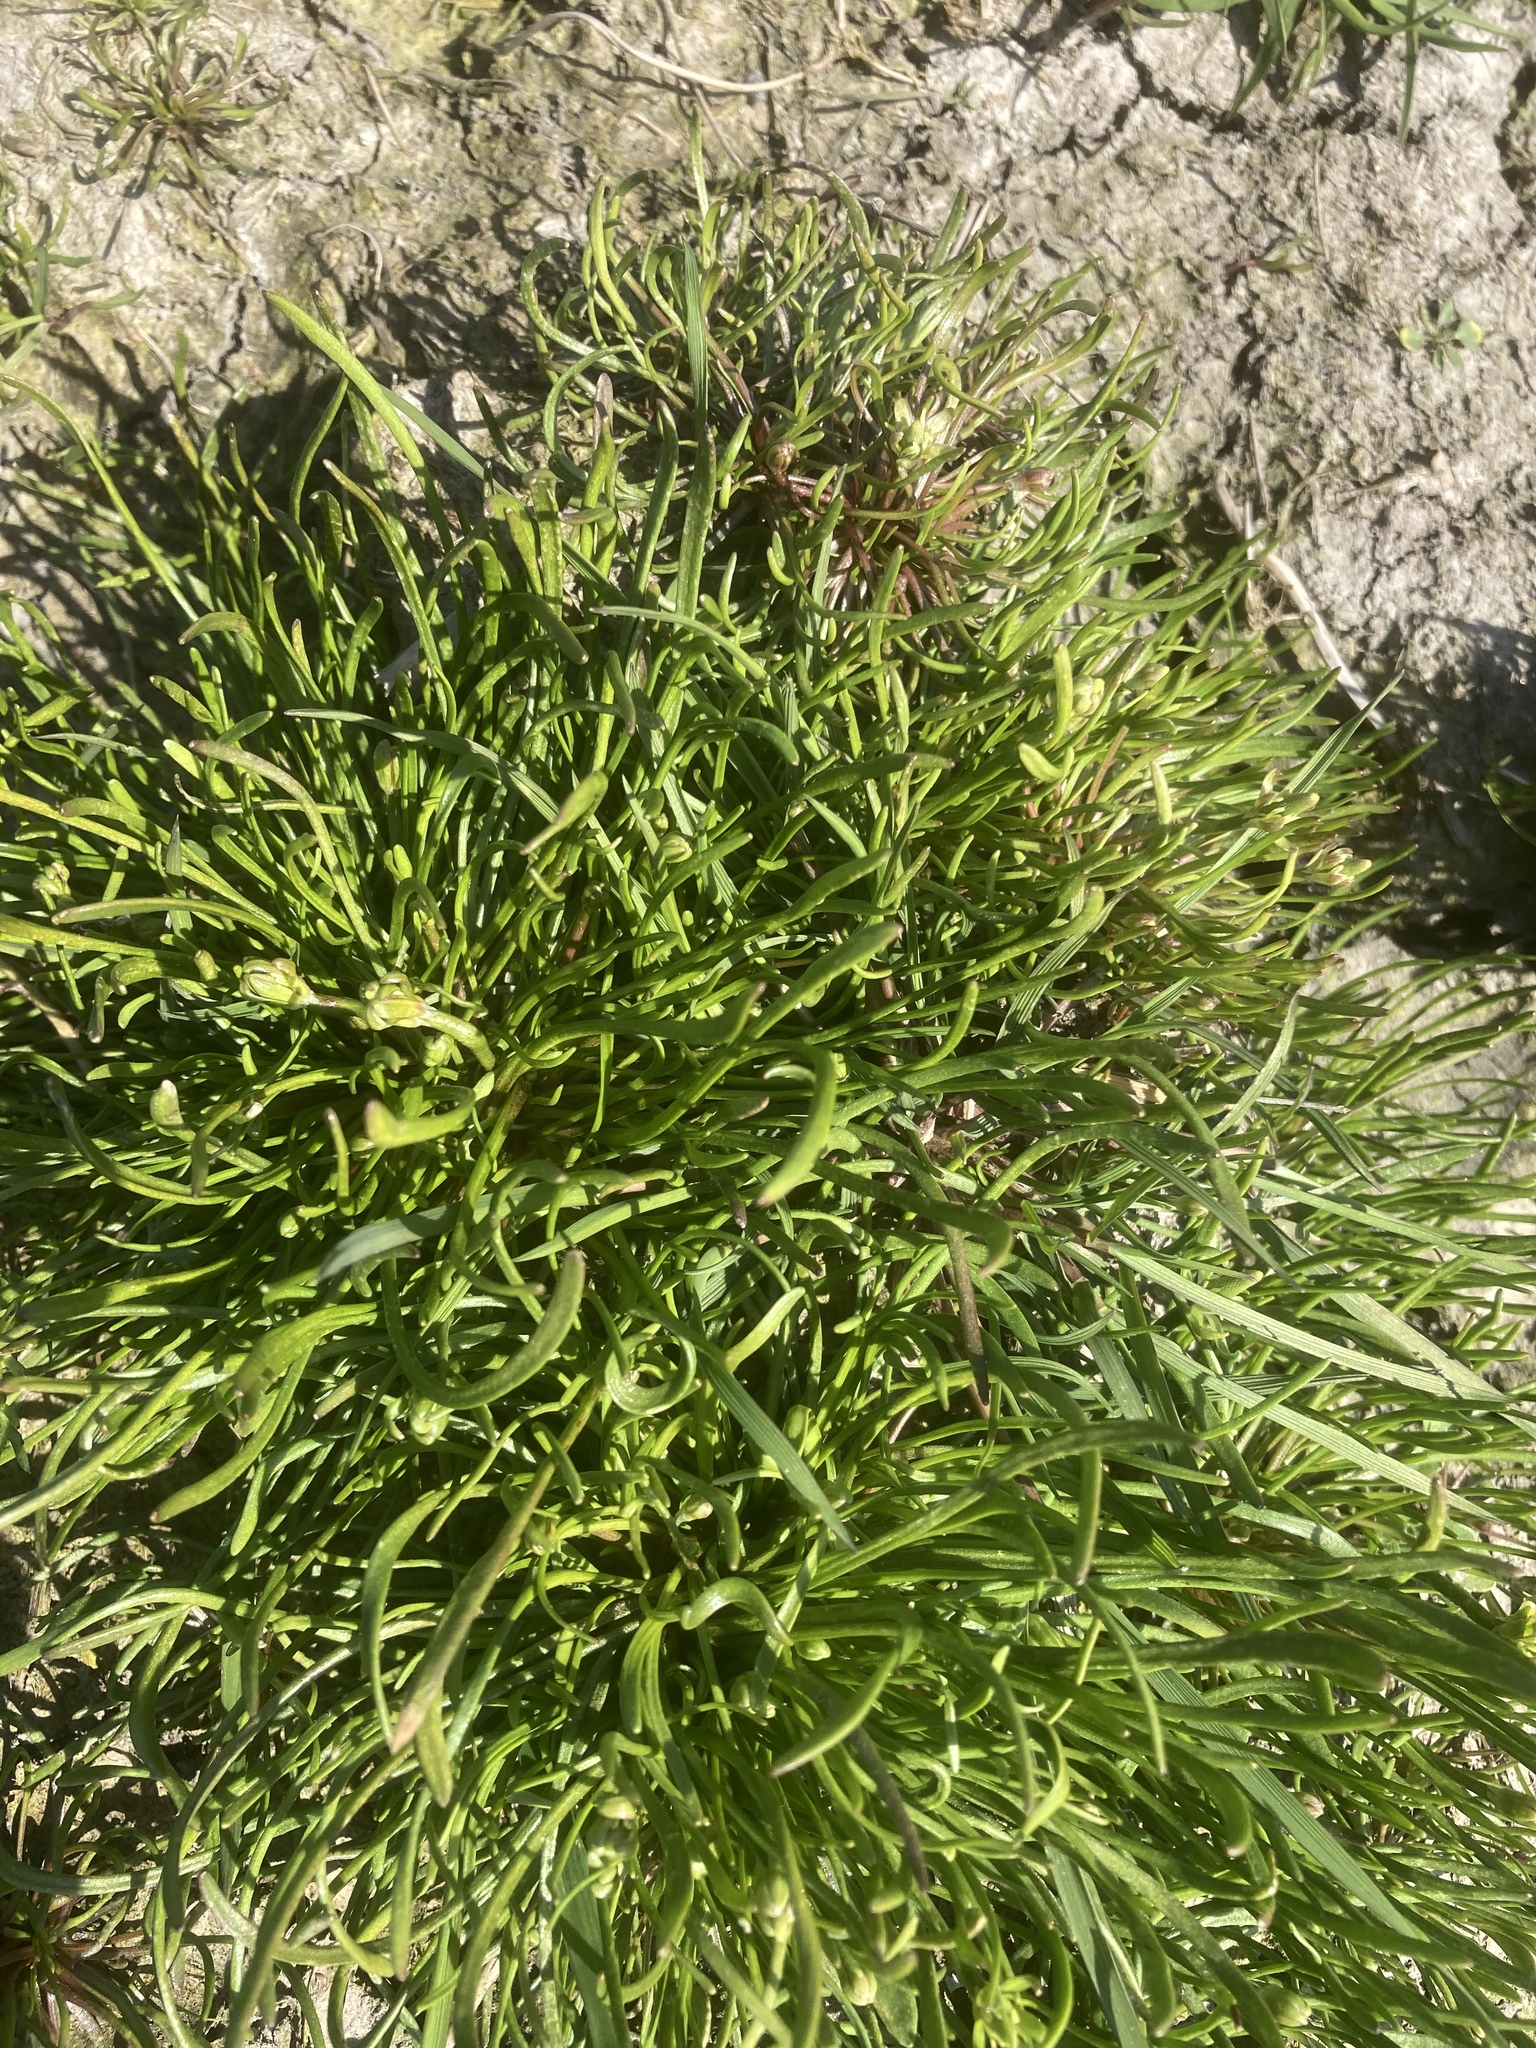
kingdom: Plantae
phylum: Tracheophyta
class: Magnoliopsida
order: Ranunculales
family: Ranunculaceae
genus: Myosurus
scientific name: Myosurus minimus
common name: Mousetail
